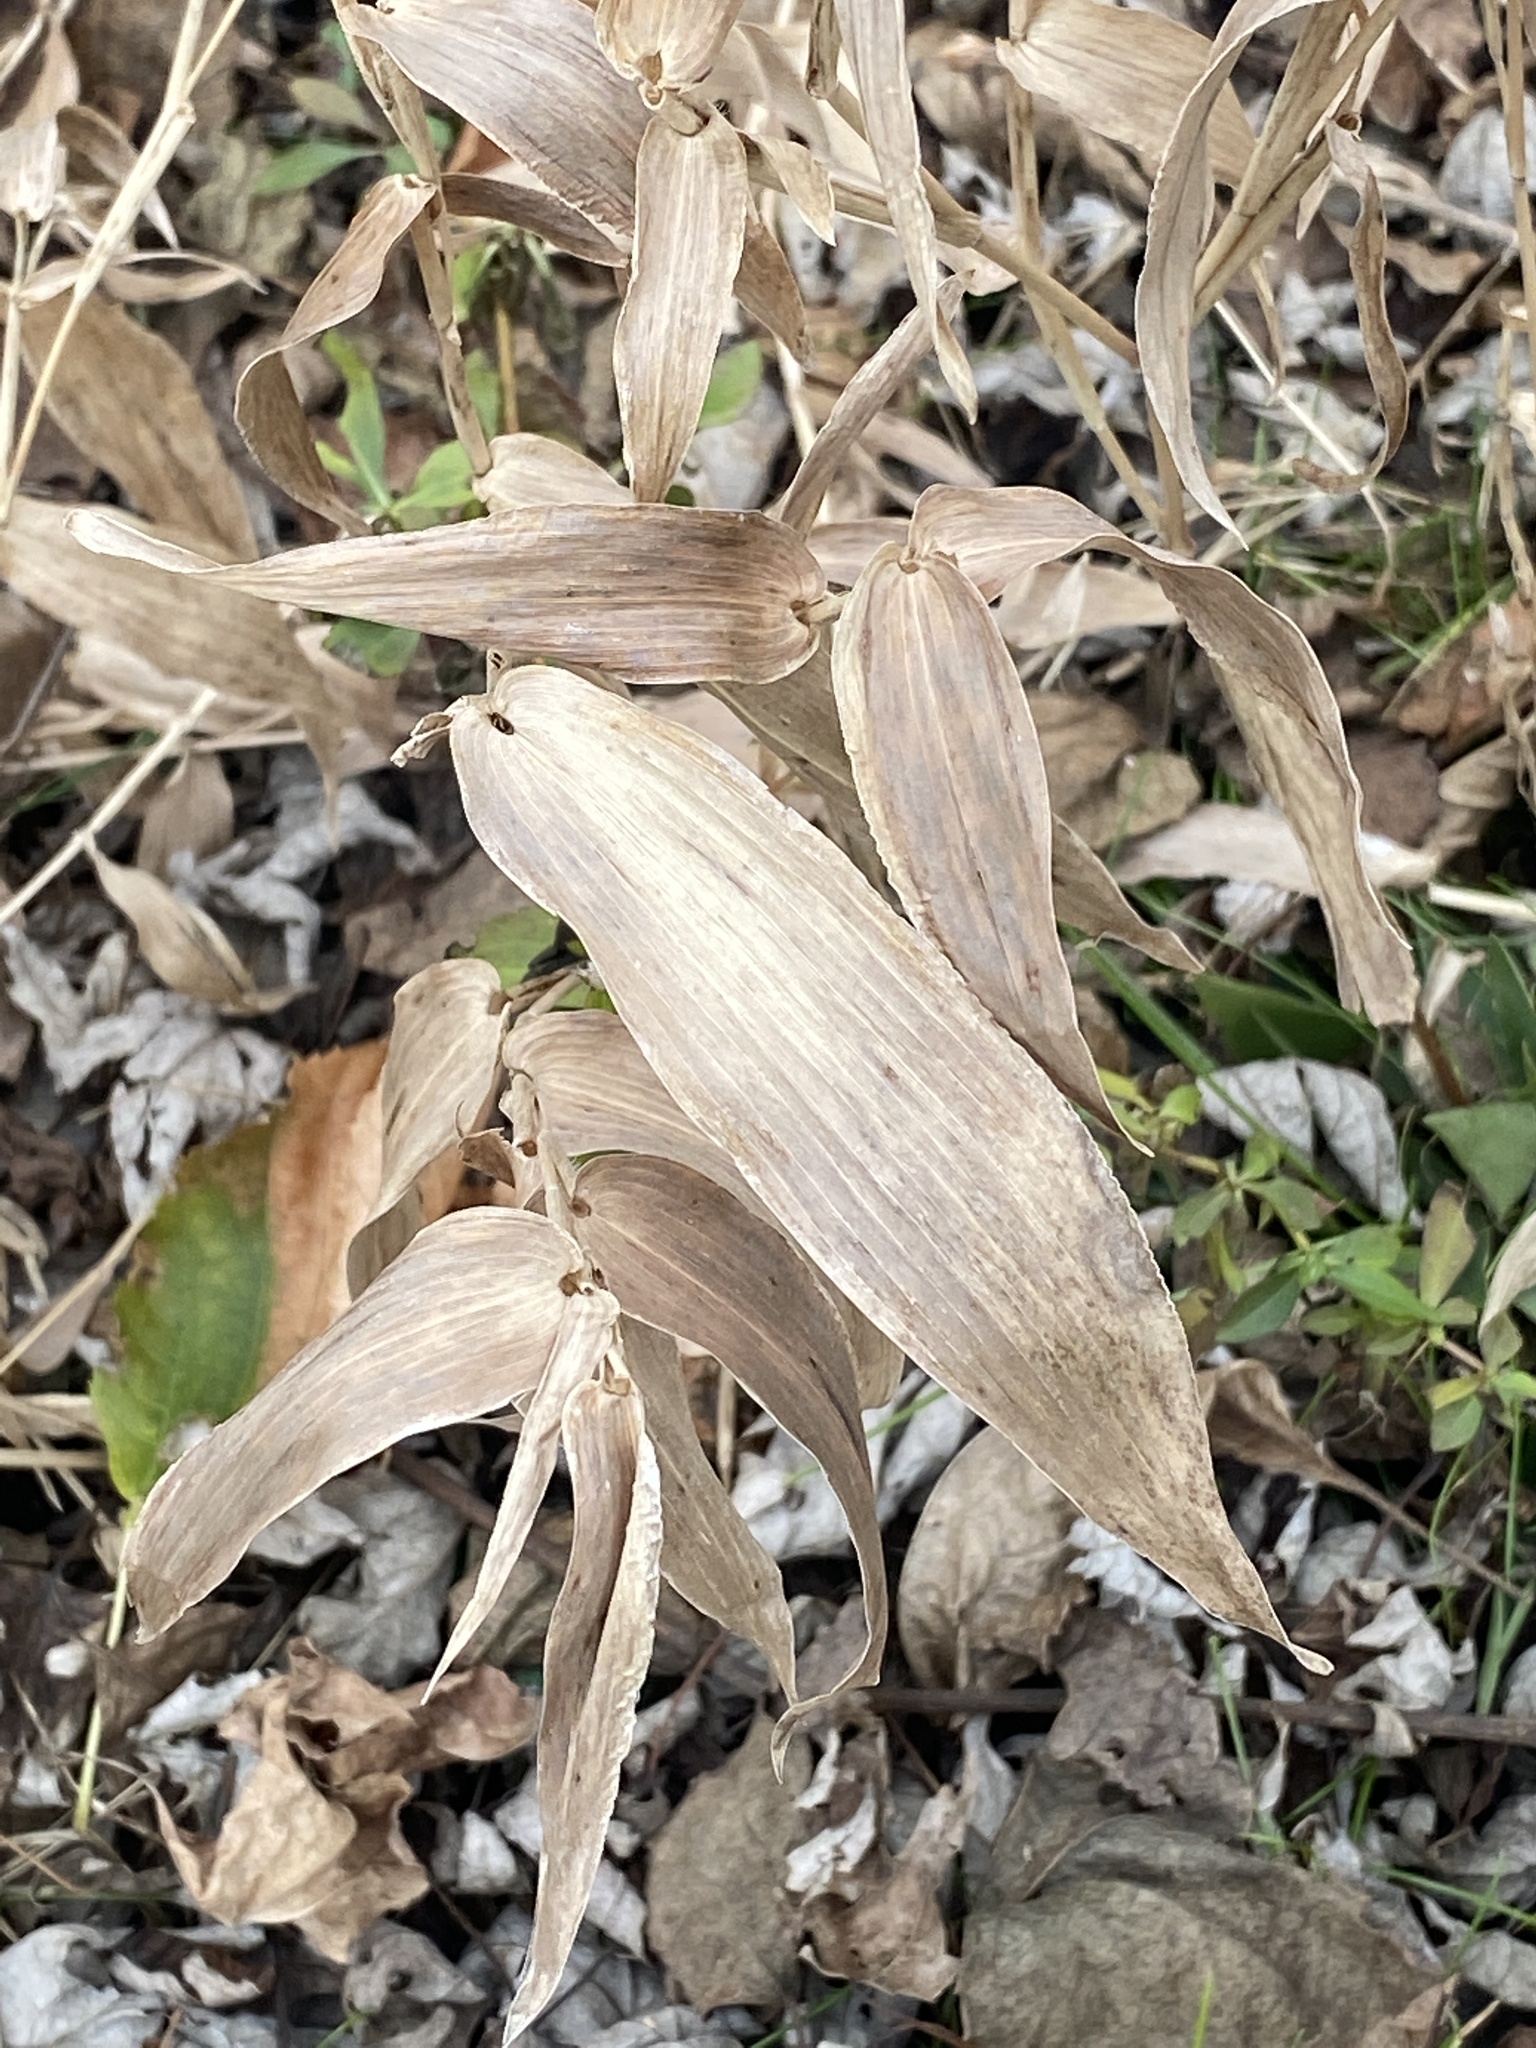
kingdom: Plantae
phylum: Tracheophyta
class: Liliopsida
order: Poales
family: Poaceae
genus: Dichanthelium
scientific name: Dichanthelium clandestinum
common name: Deer-tongue grass
